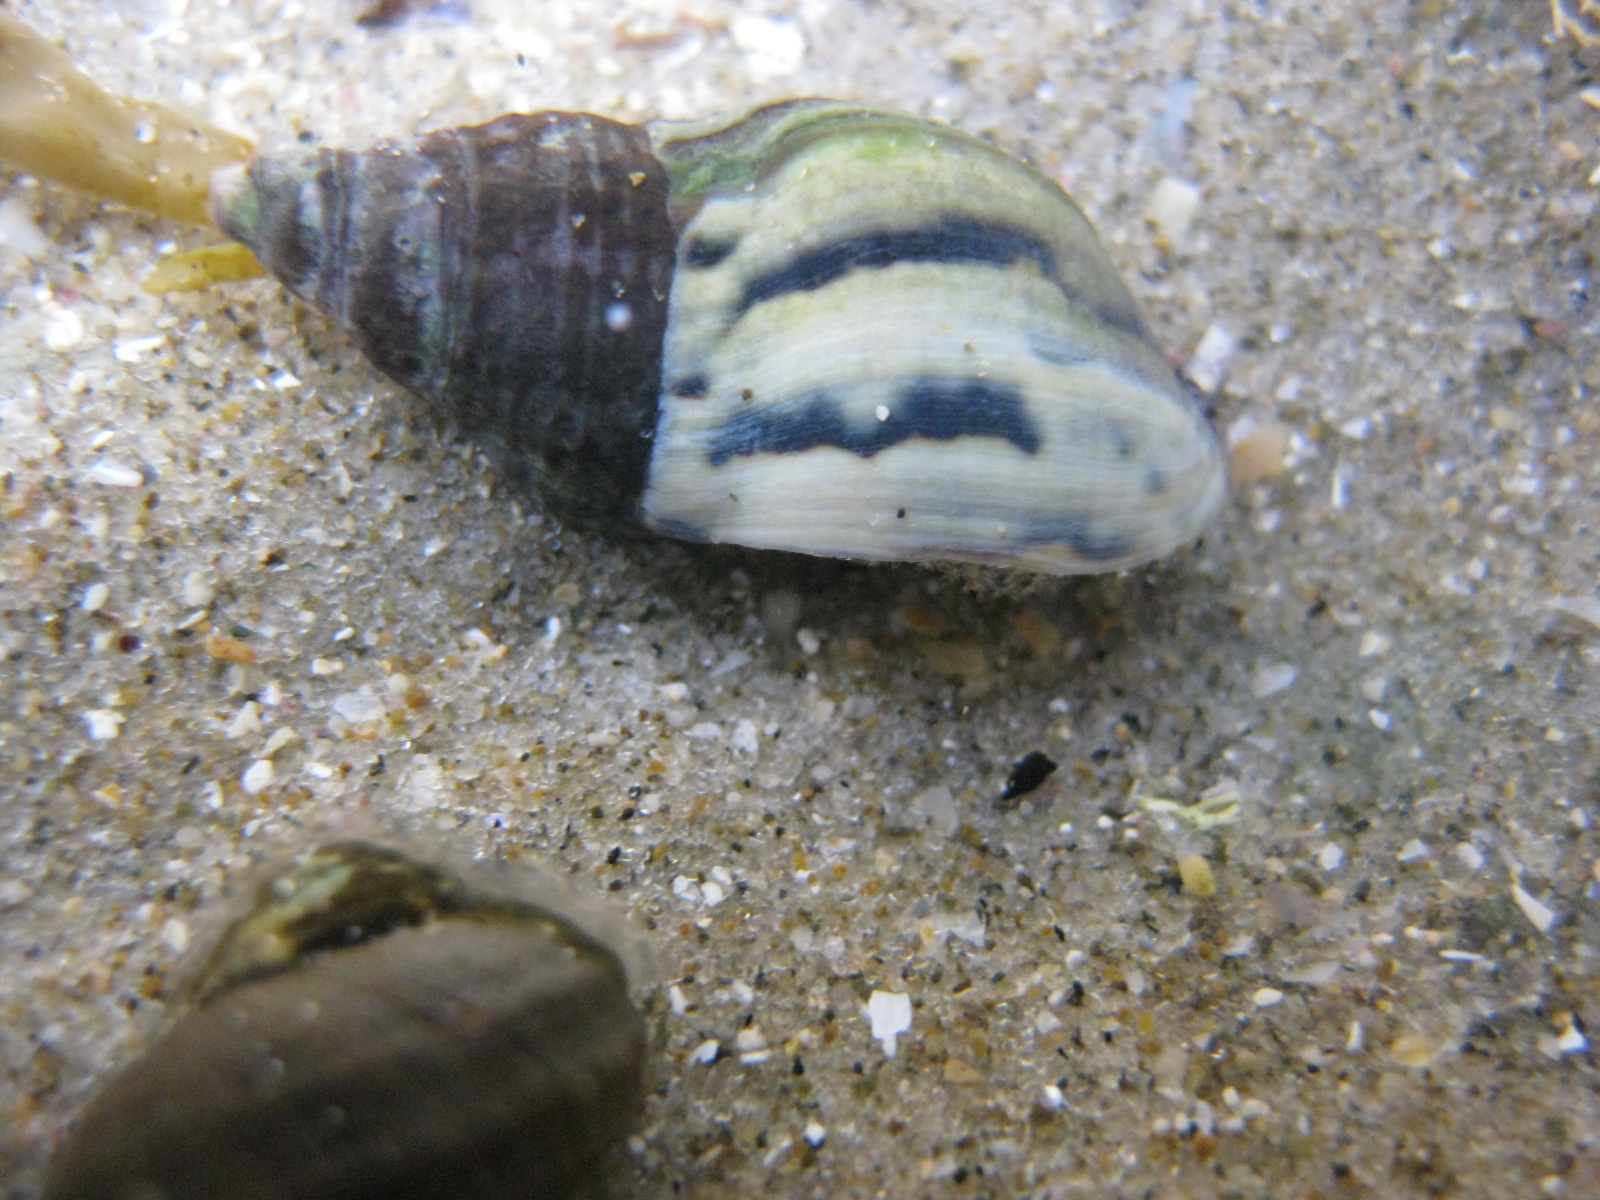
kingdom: Animalia
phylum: Mollusca
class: Gastropoda
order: Neogastropoda
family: Cominellidae
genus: Cominella
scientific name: Cominella virgata
